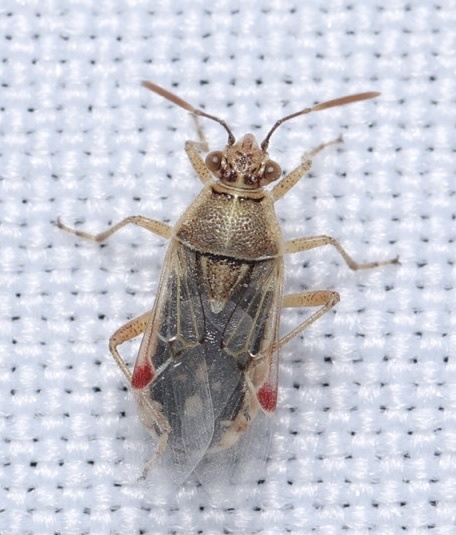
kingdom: Animalia
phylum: Arthropoda
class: Insecta
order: Hemiptera
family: Rhopalidae
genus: Liorhyssus
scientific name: Liorhyssus hyalinus
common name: Scentless plant bug
